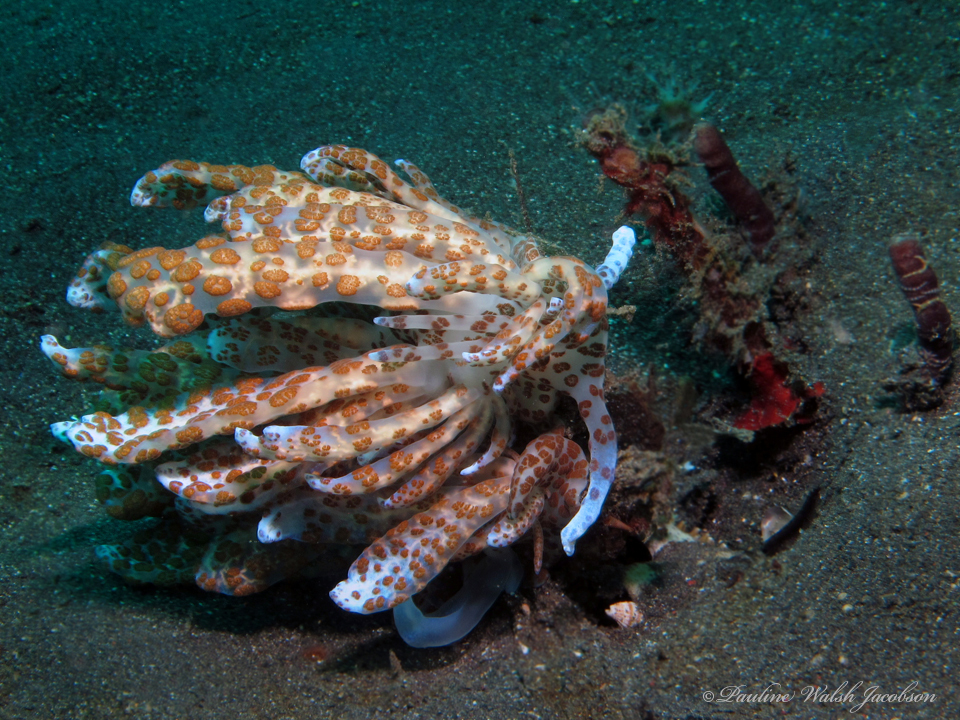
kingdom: Animalia
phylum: Mollusca
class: Gastropoda
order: Nudibranchia
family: Myrrhinidae
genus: Phyllodesmium
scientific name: Phyllodesmium longicirrum
